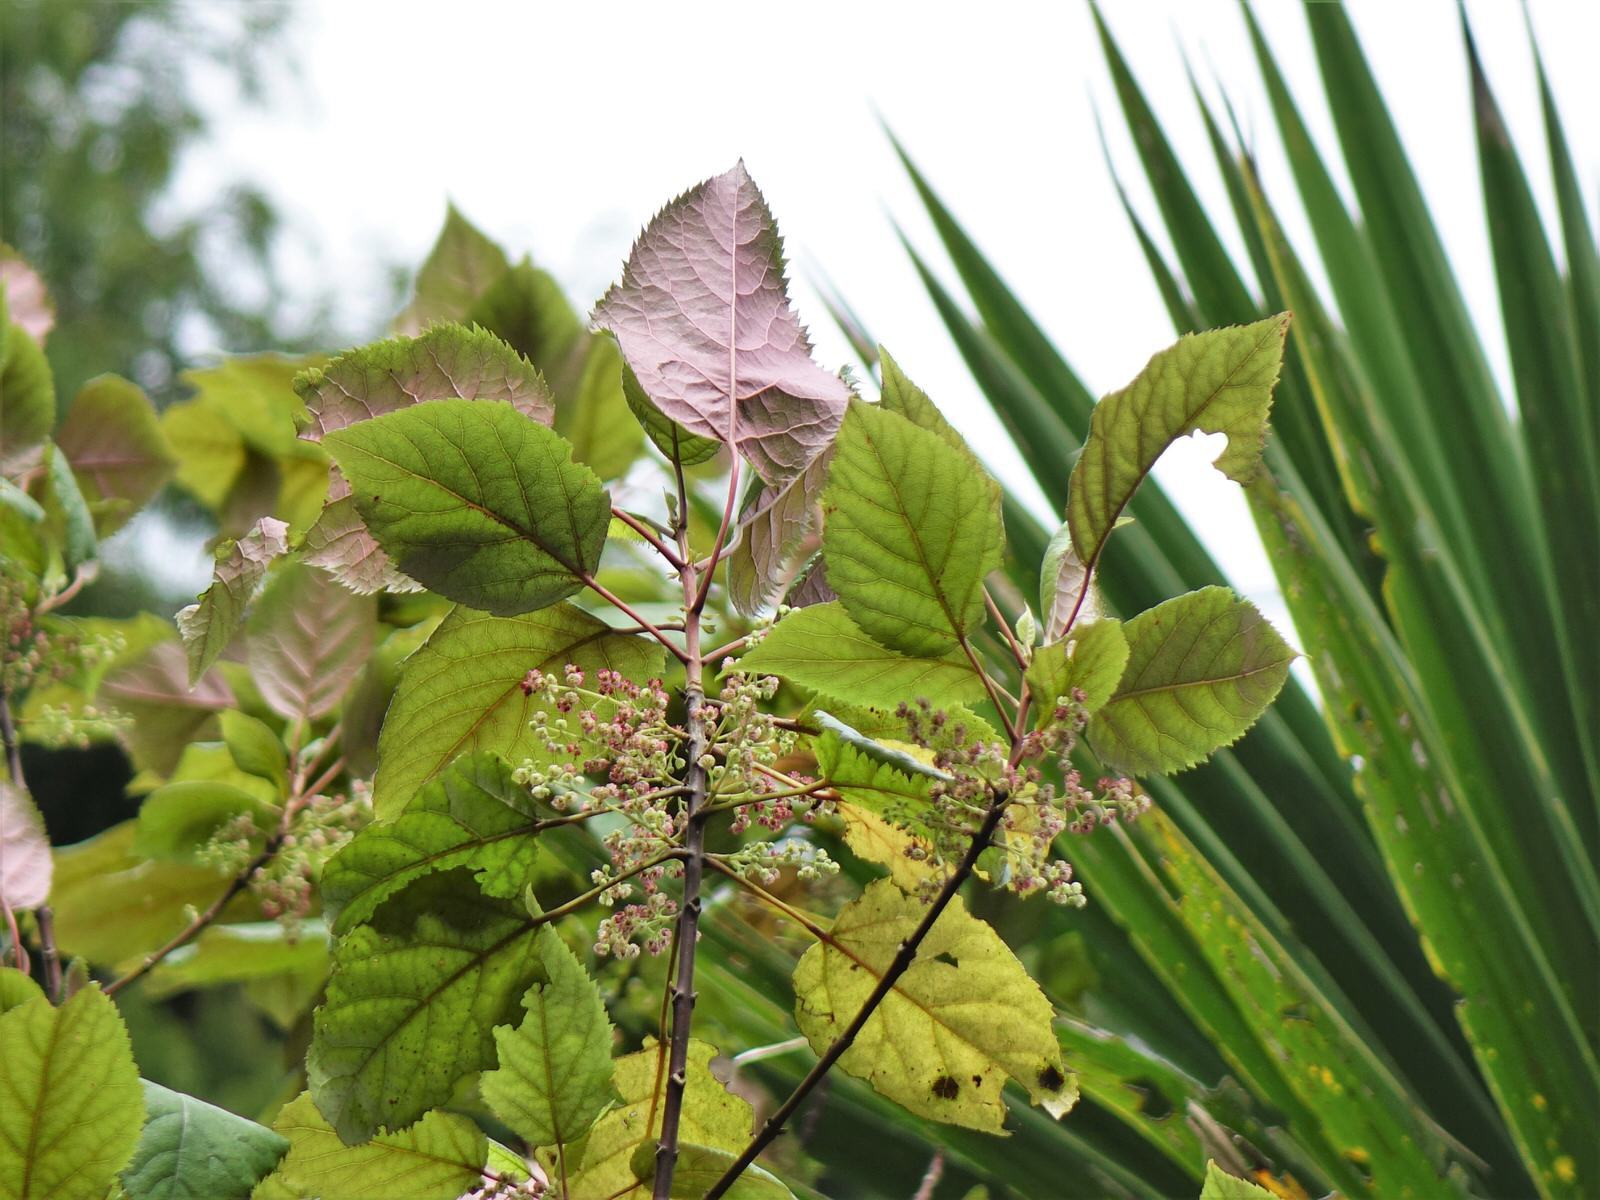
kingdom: Plantae
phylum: Tracheophyta
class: Magnoliopsida
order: Oxalidales
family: Elaeocarpaceae
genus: Aristotelia
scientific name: Aristotelia serrata
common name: New zealand wineberry
